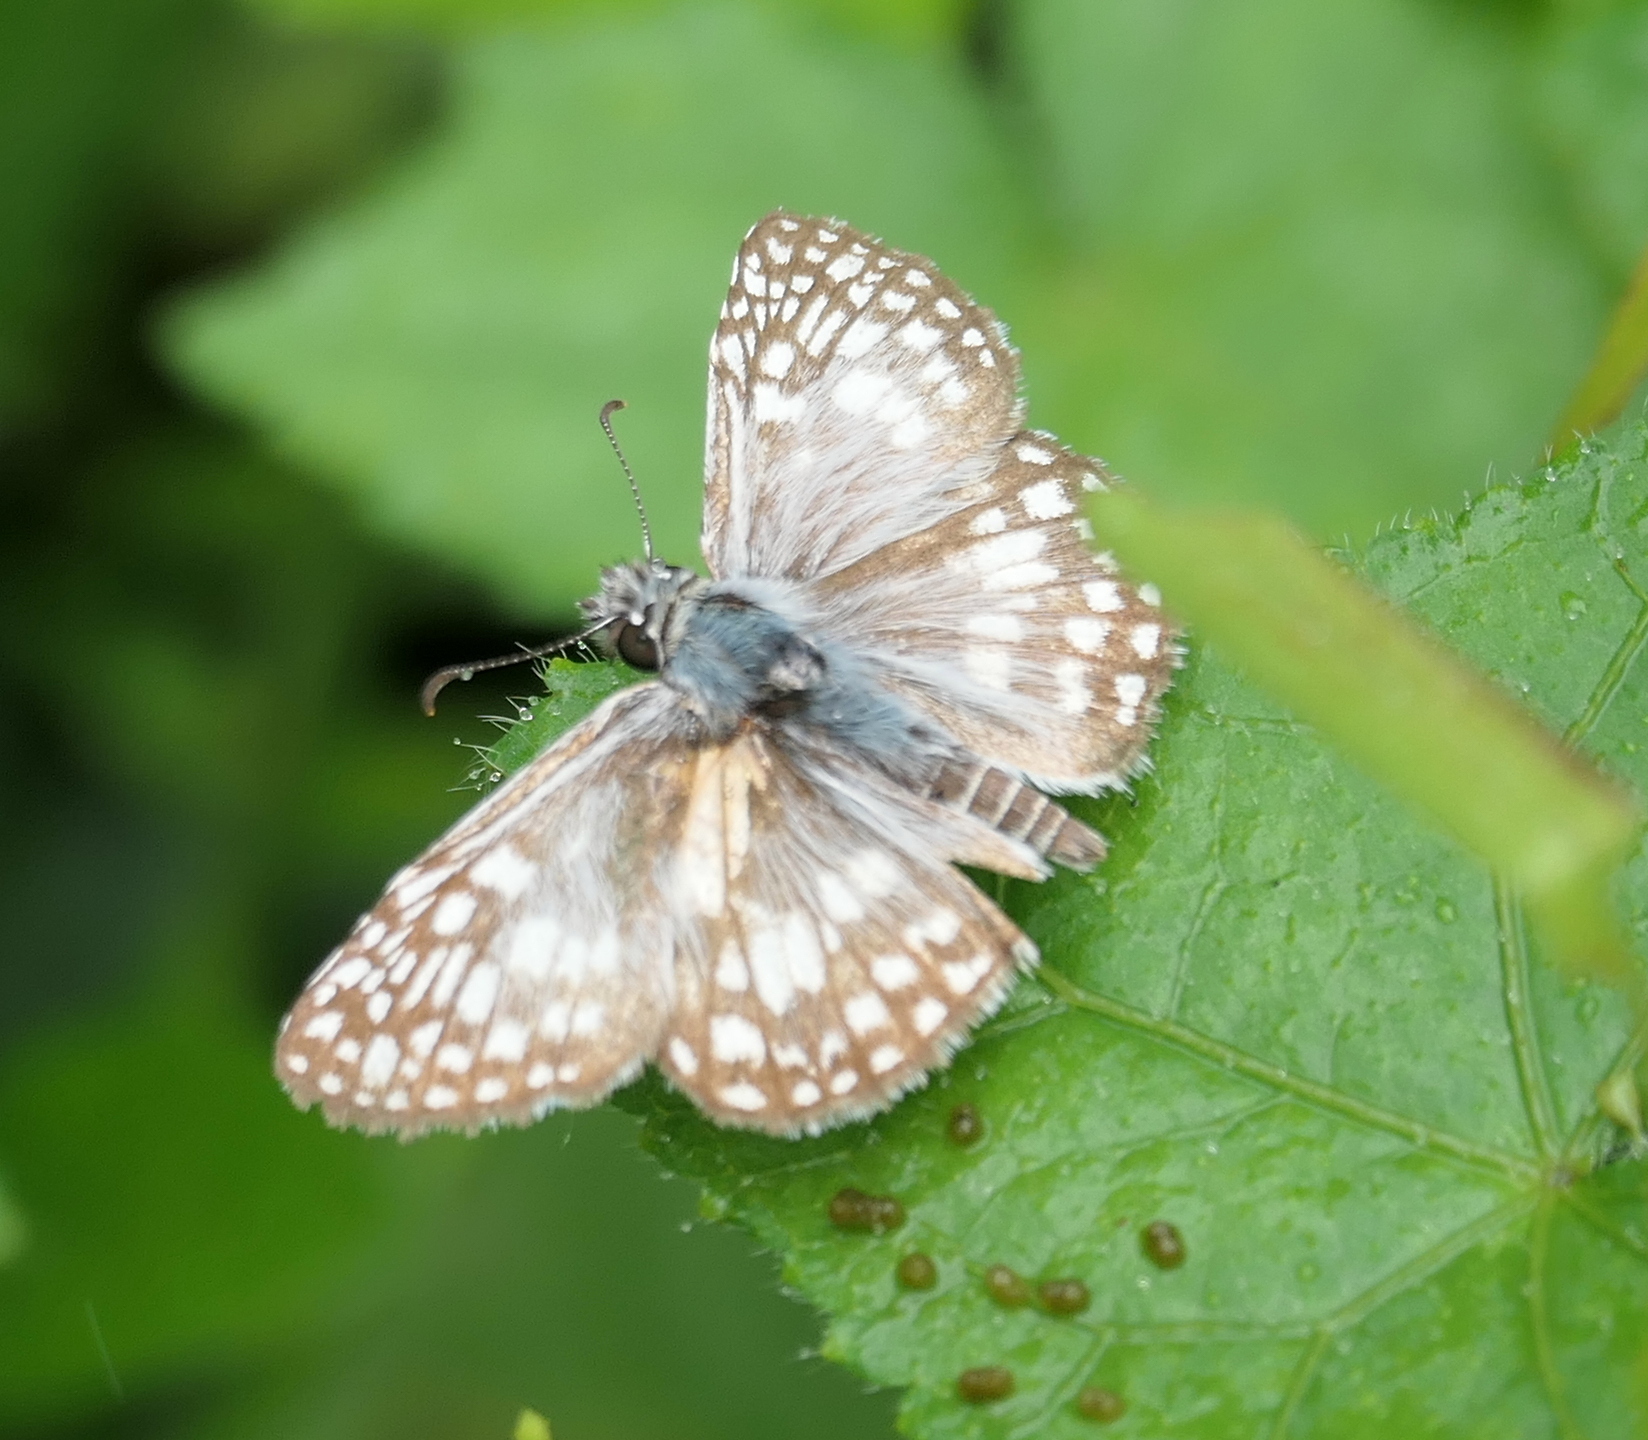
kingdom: Animalia
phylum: Arthropoda
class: Insecta
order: Lepidoptera
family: Hesperiidae
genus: Pyrgus
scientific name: Pyrgus oileus
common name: Tropical checkered-skipper
